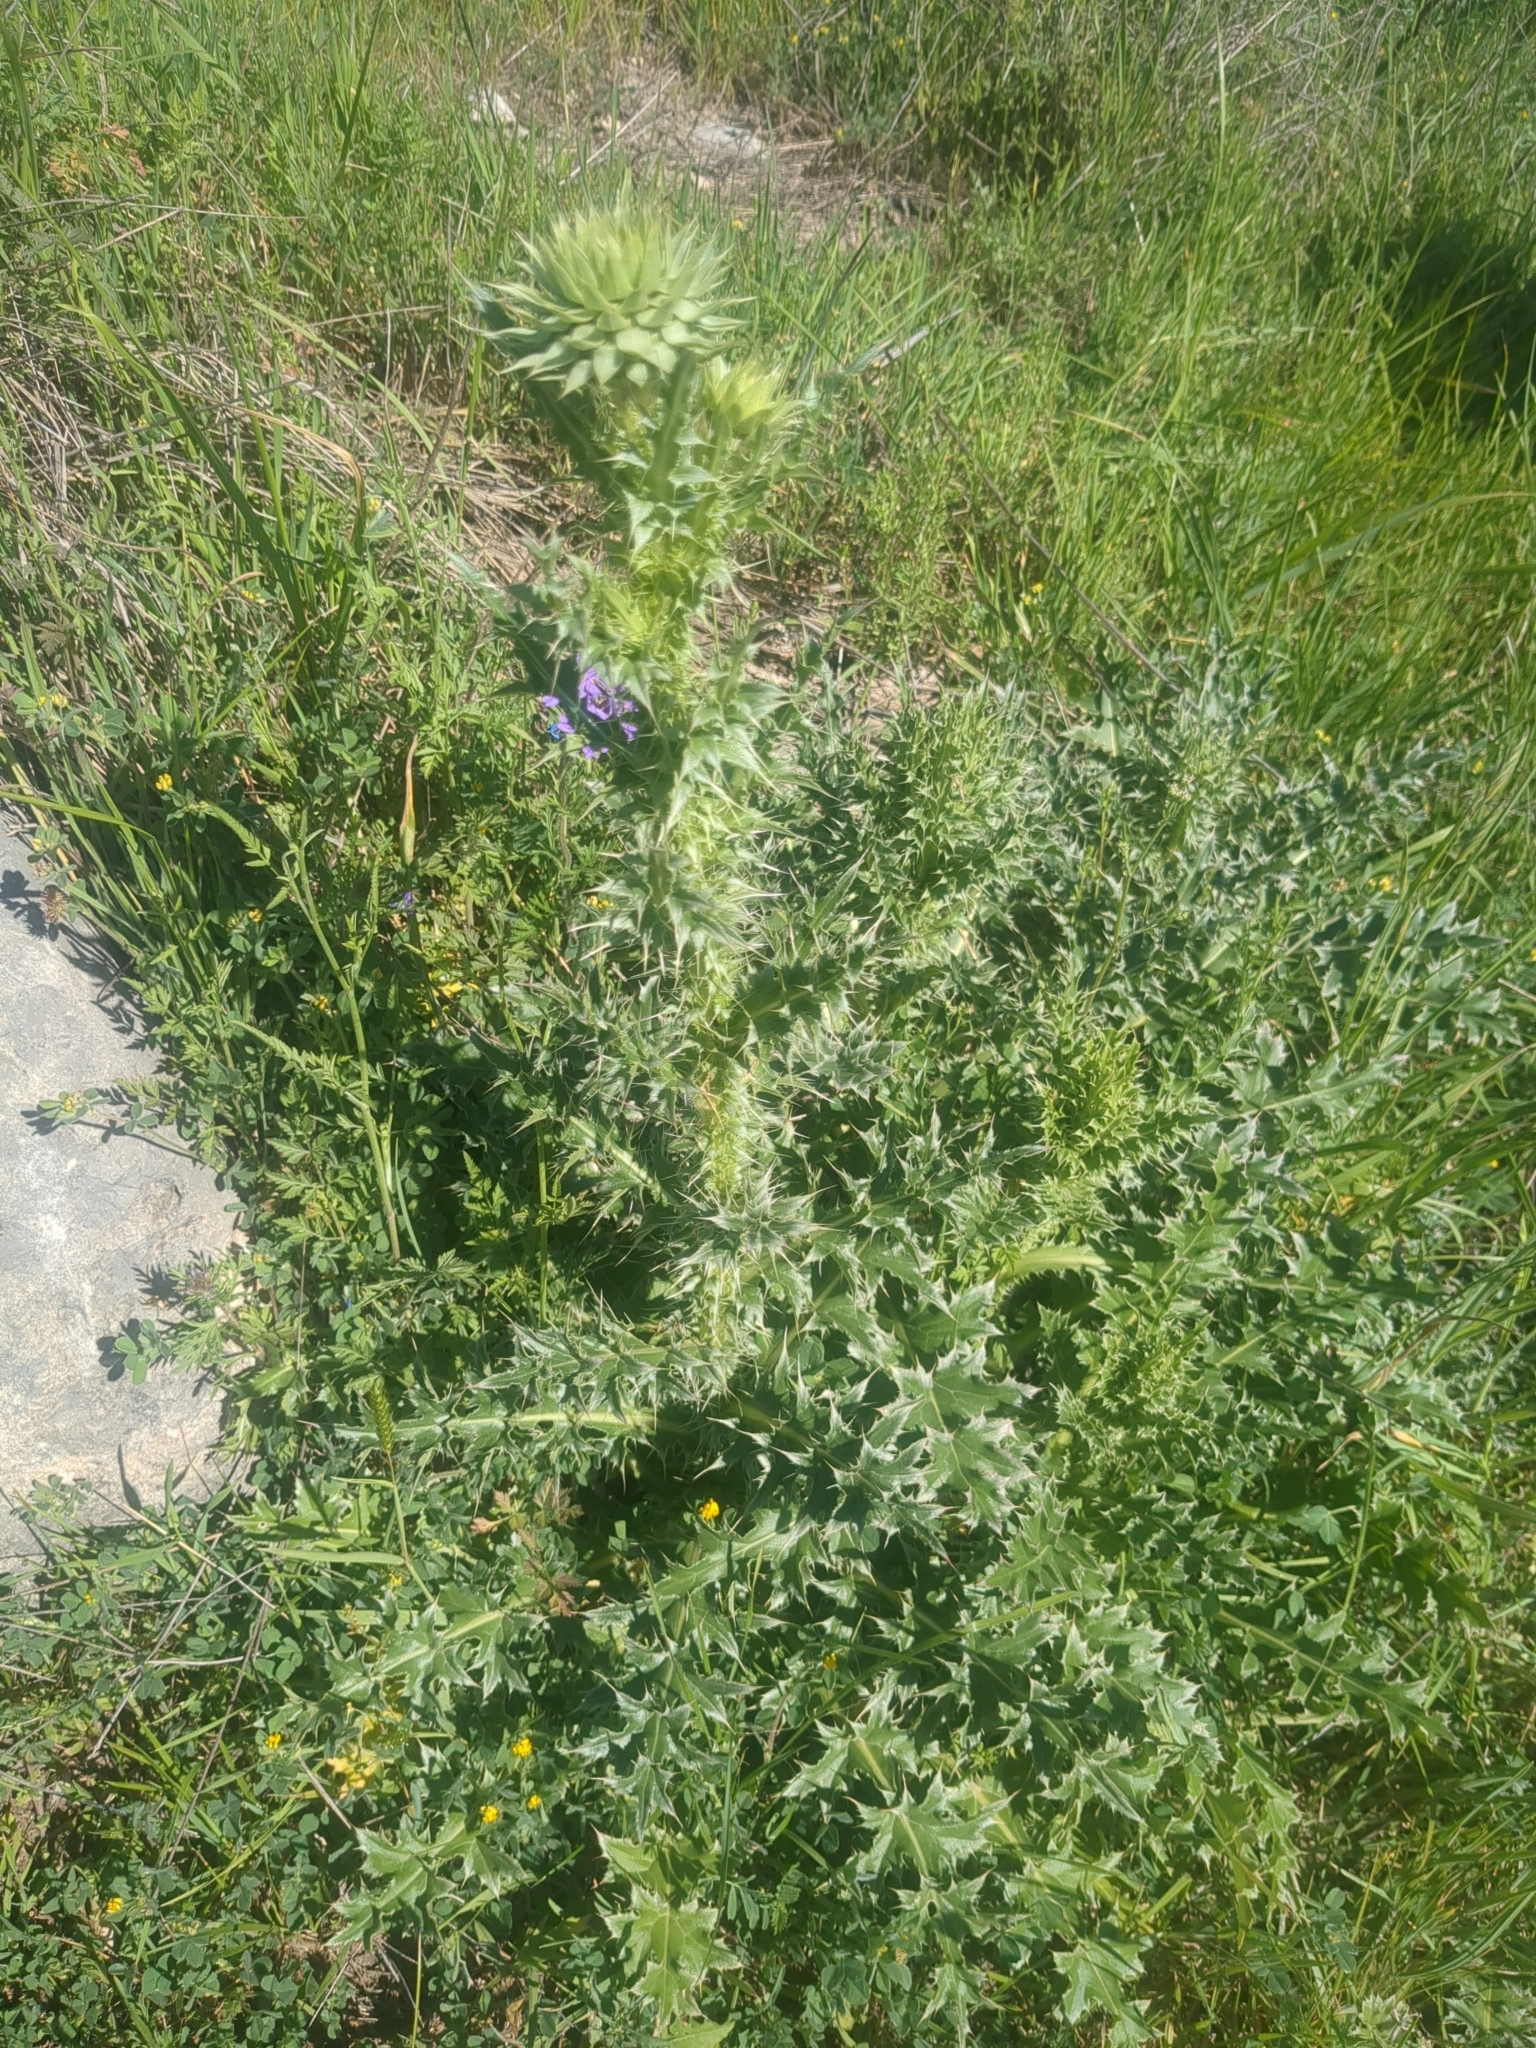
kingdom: Plantae
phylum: Tracheophyta
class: Magnoliopsida
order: Asterales
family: Asteraceae
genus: Carduus
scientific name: Carduus nutans
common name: Musk thistle
